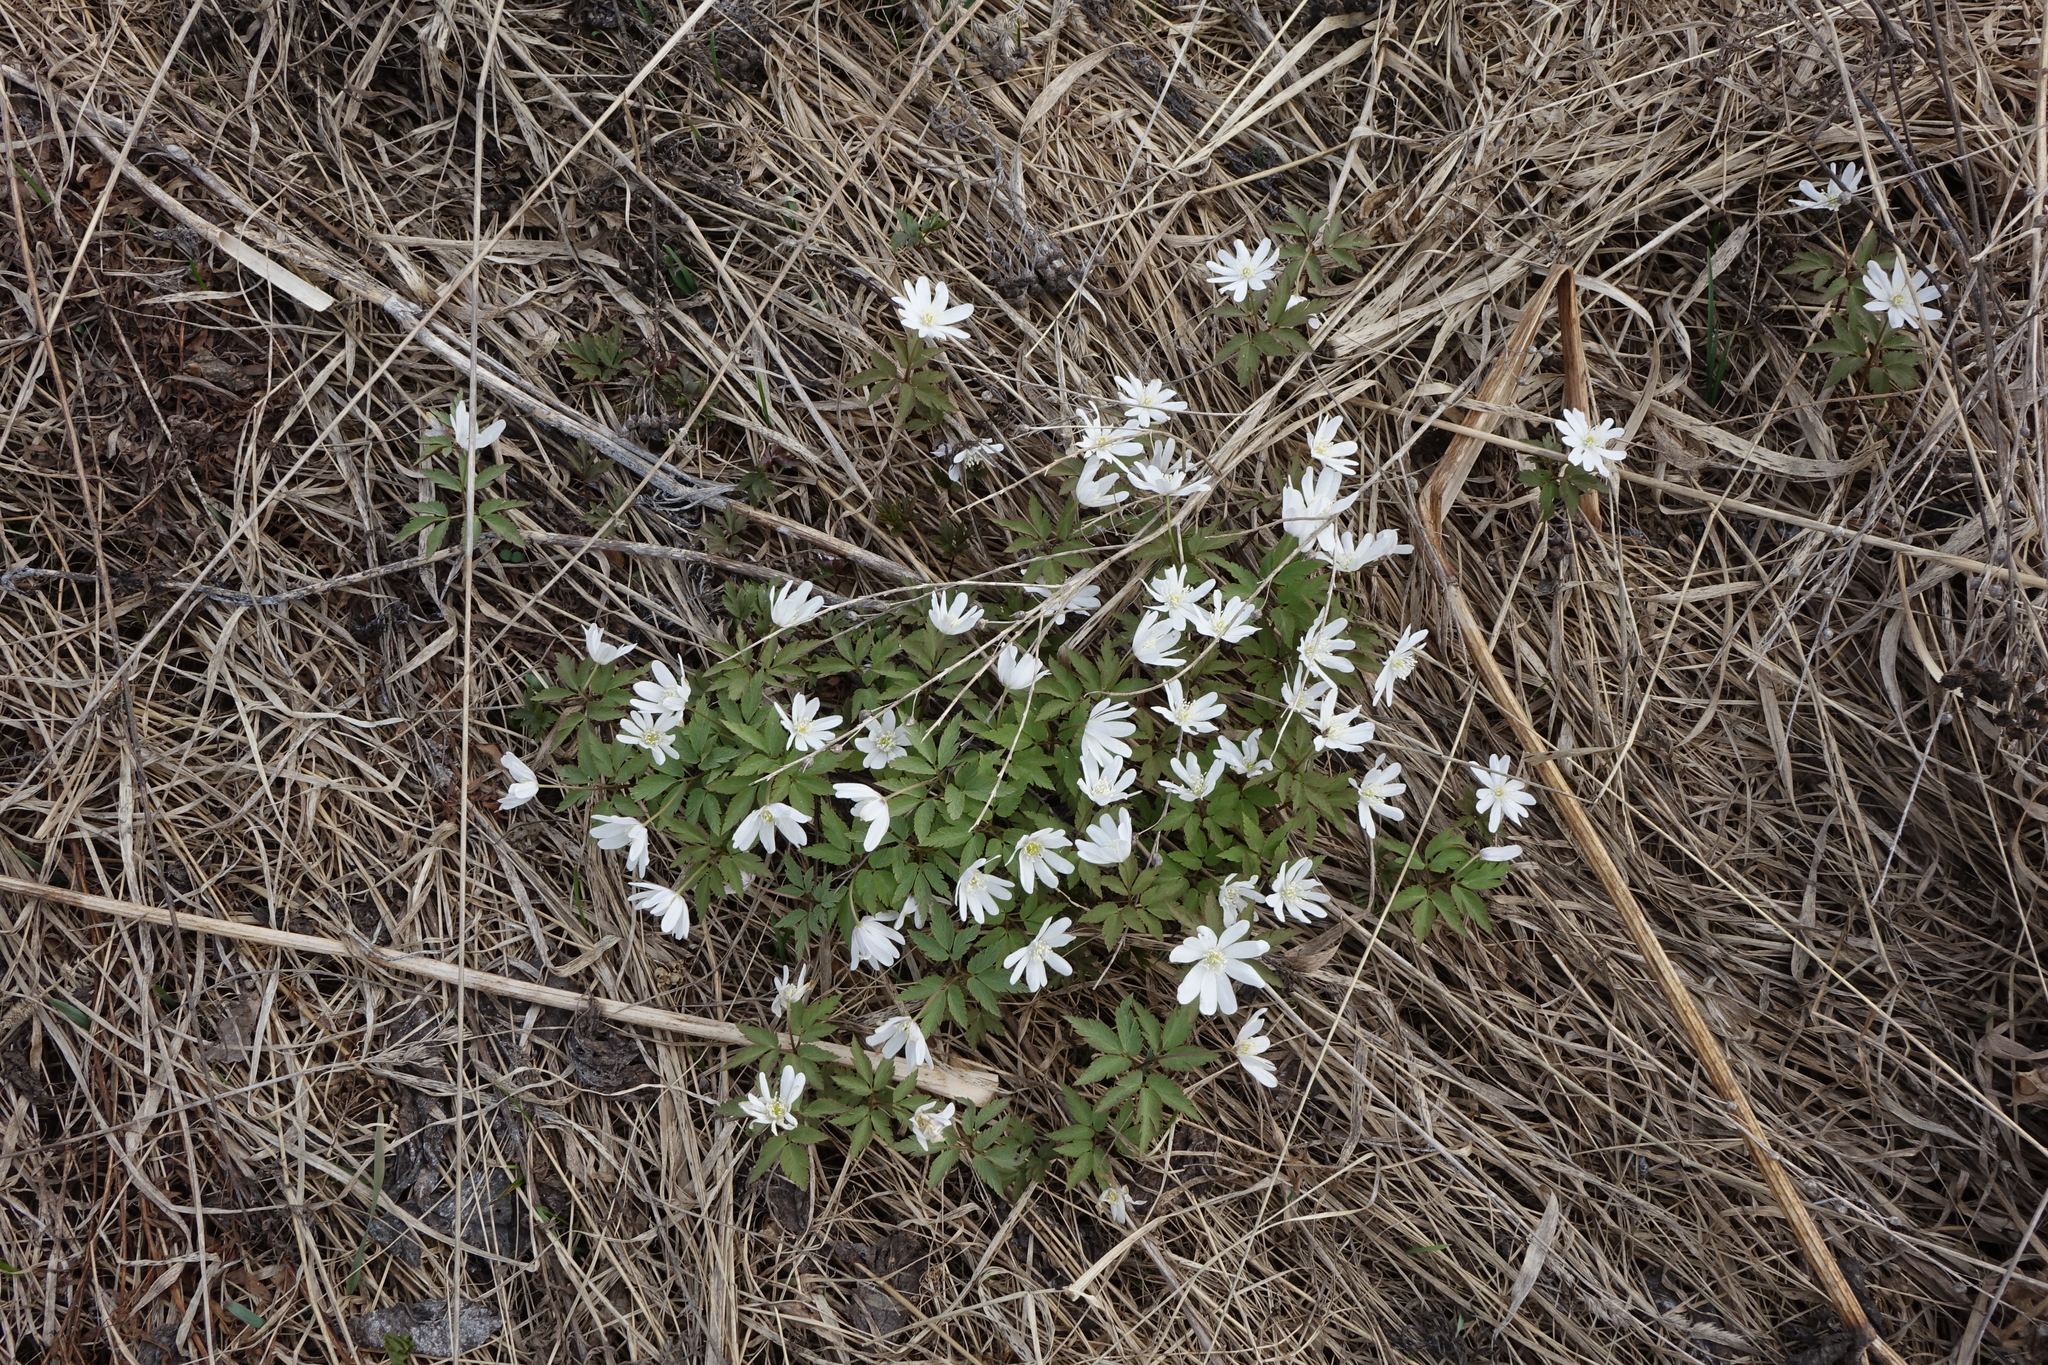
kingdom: Plantae
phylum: Tracheophyta
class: Magnoliopsida
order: Ranunculales
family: Ranunculaceae
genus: Anemone
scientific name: Anemone altaica
